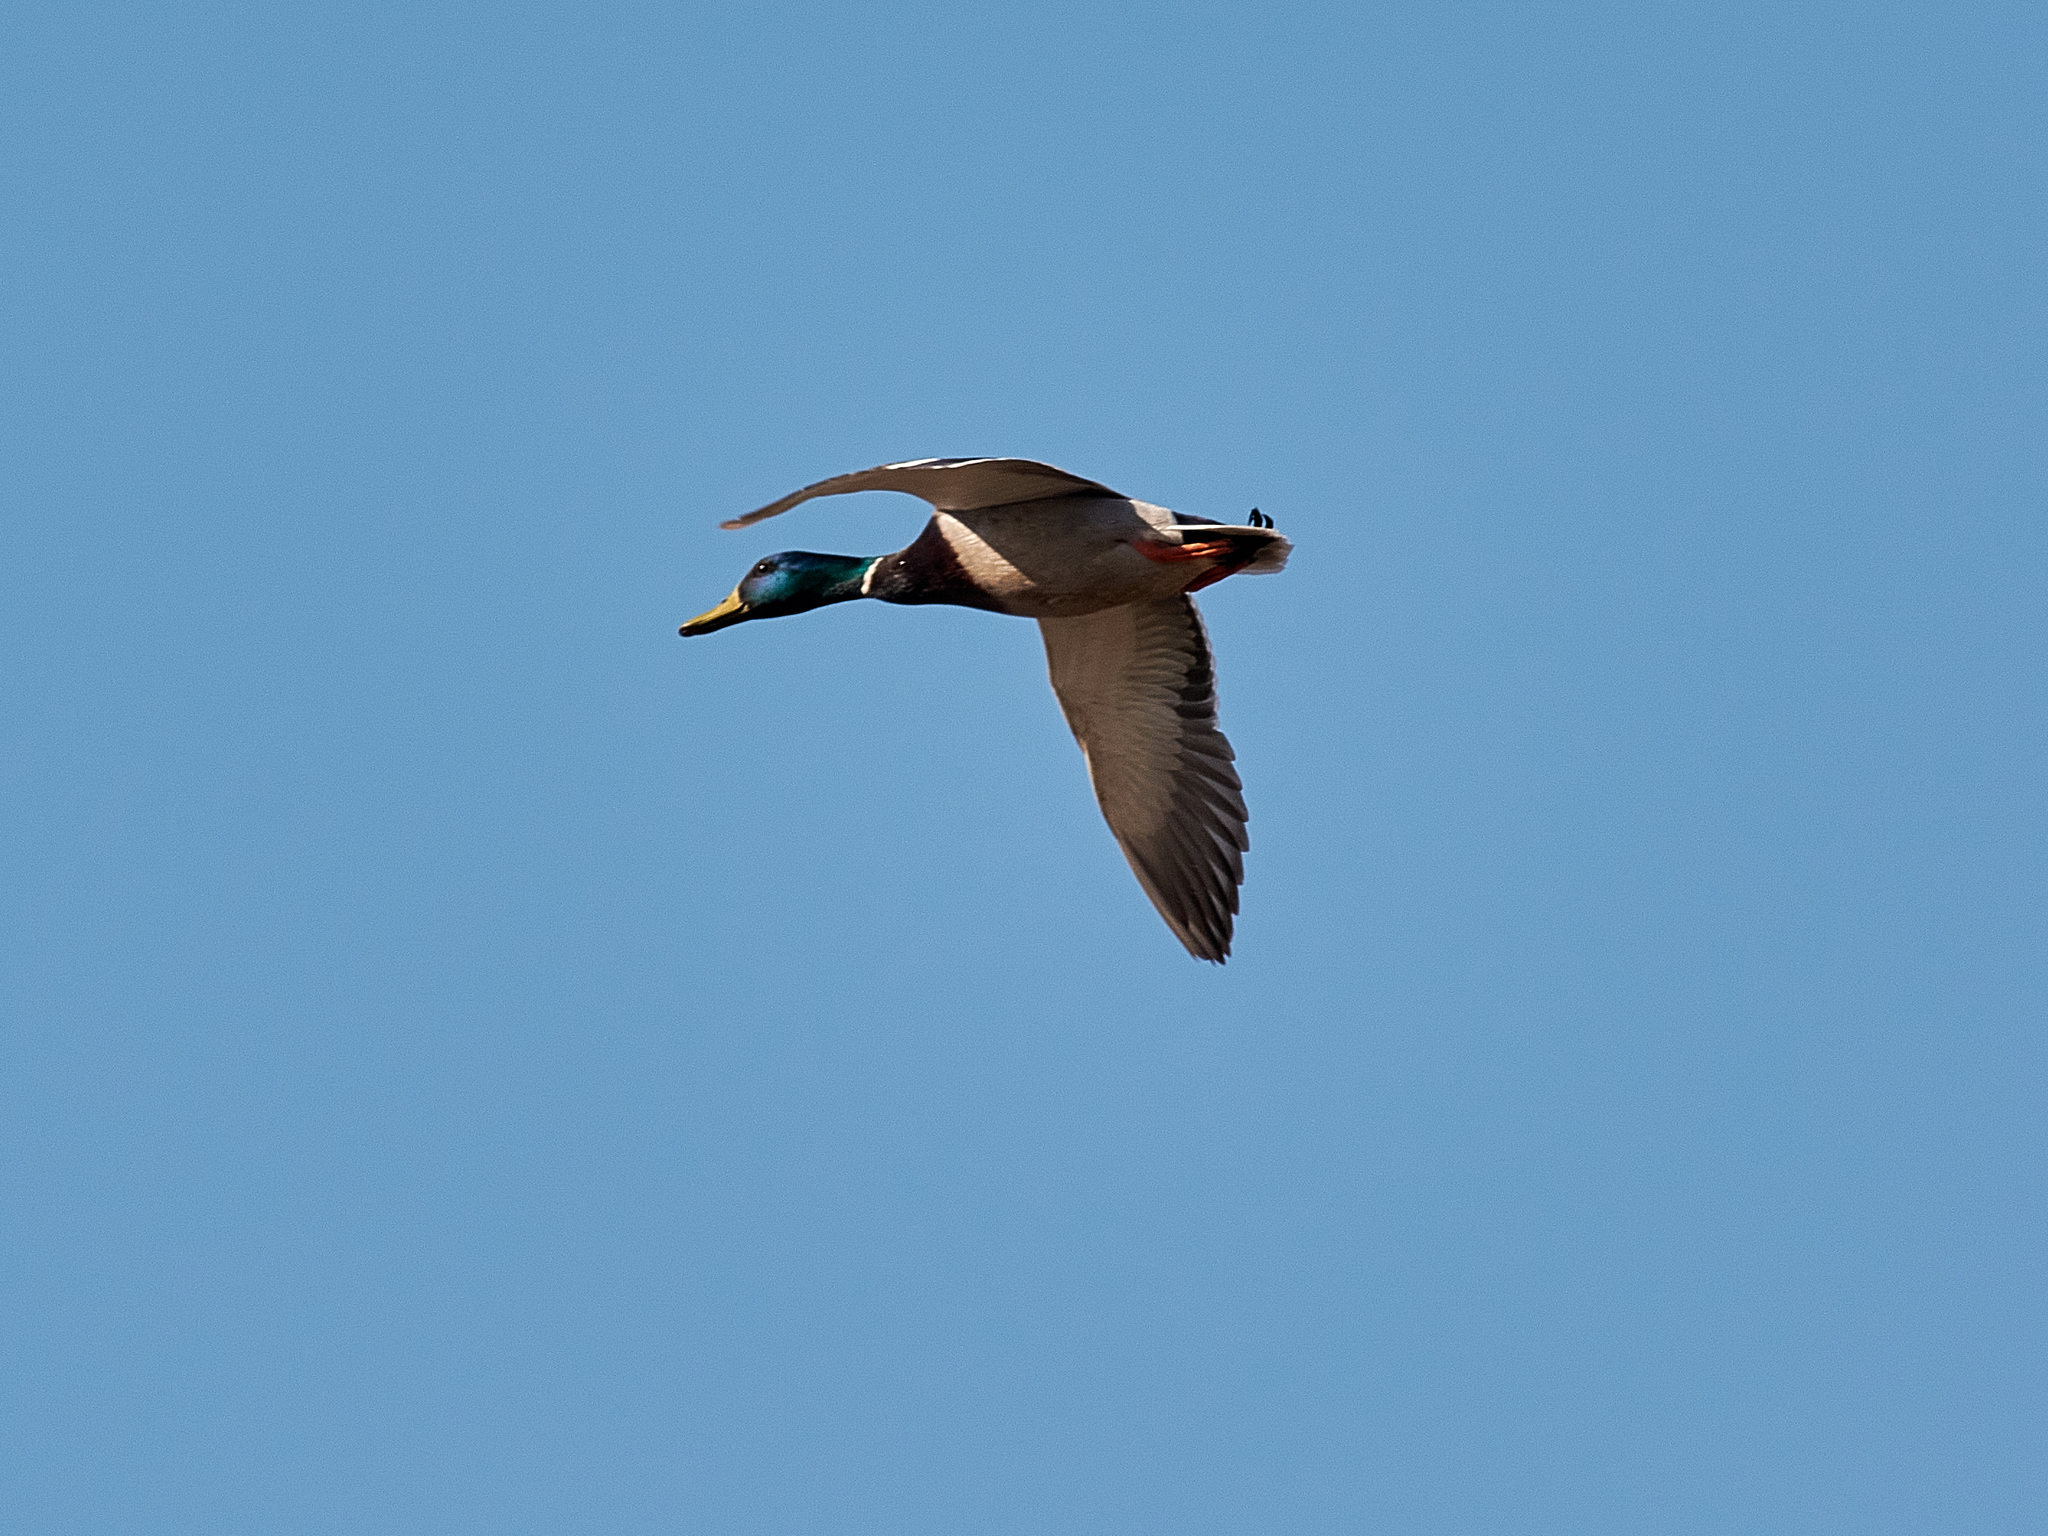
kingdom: Animalia
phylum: Chordata
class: Aves
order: Anseriformes
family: Anatidae
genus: Anas
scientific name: Anas platyrhynchos
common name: Mallard
